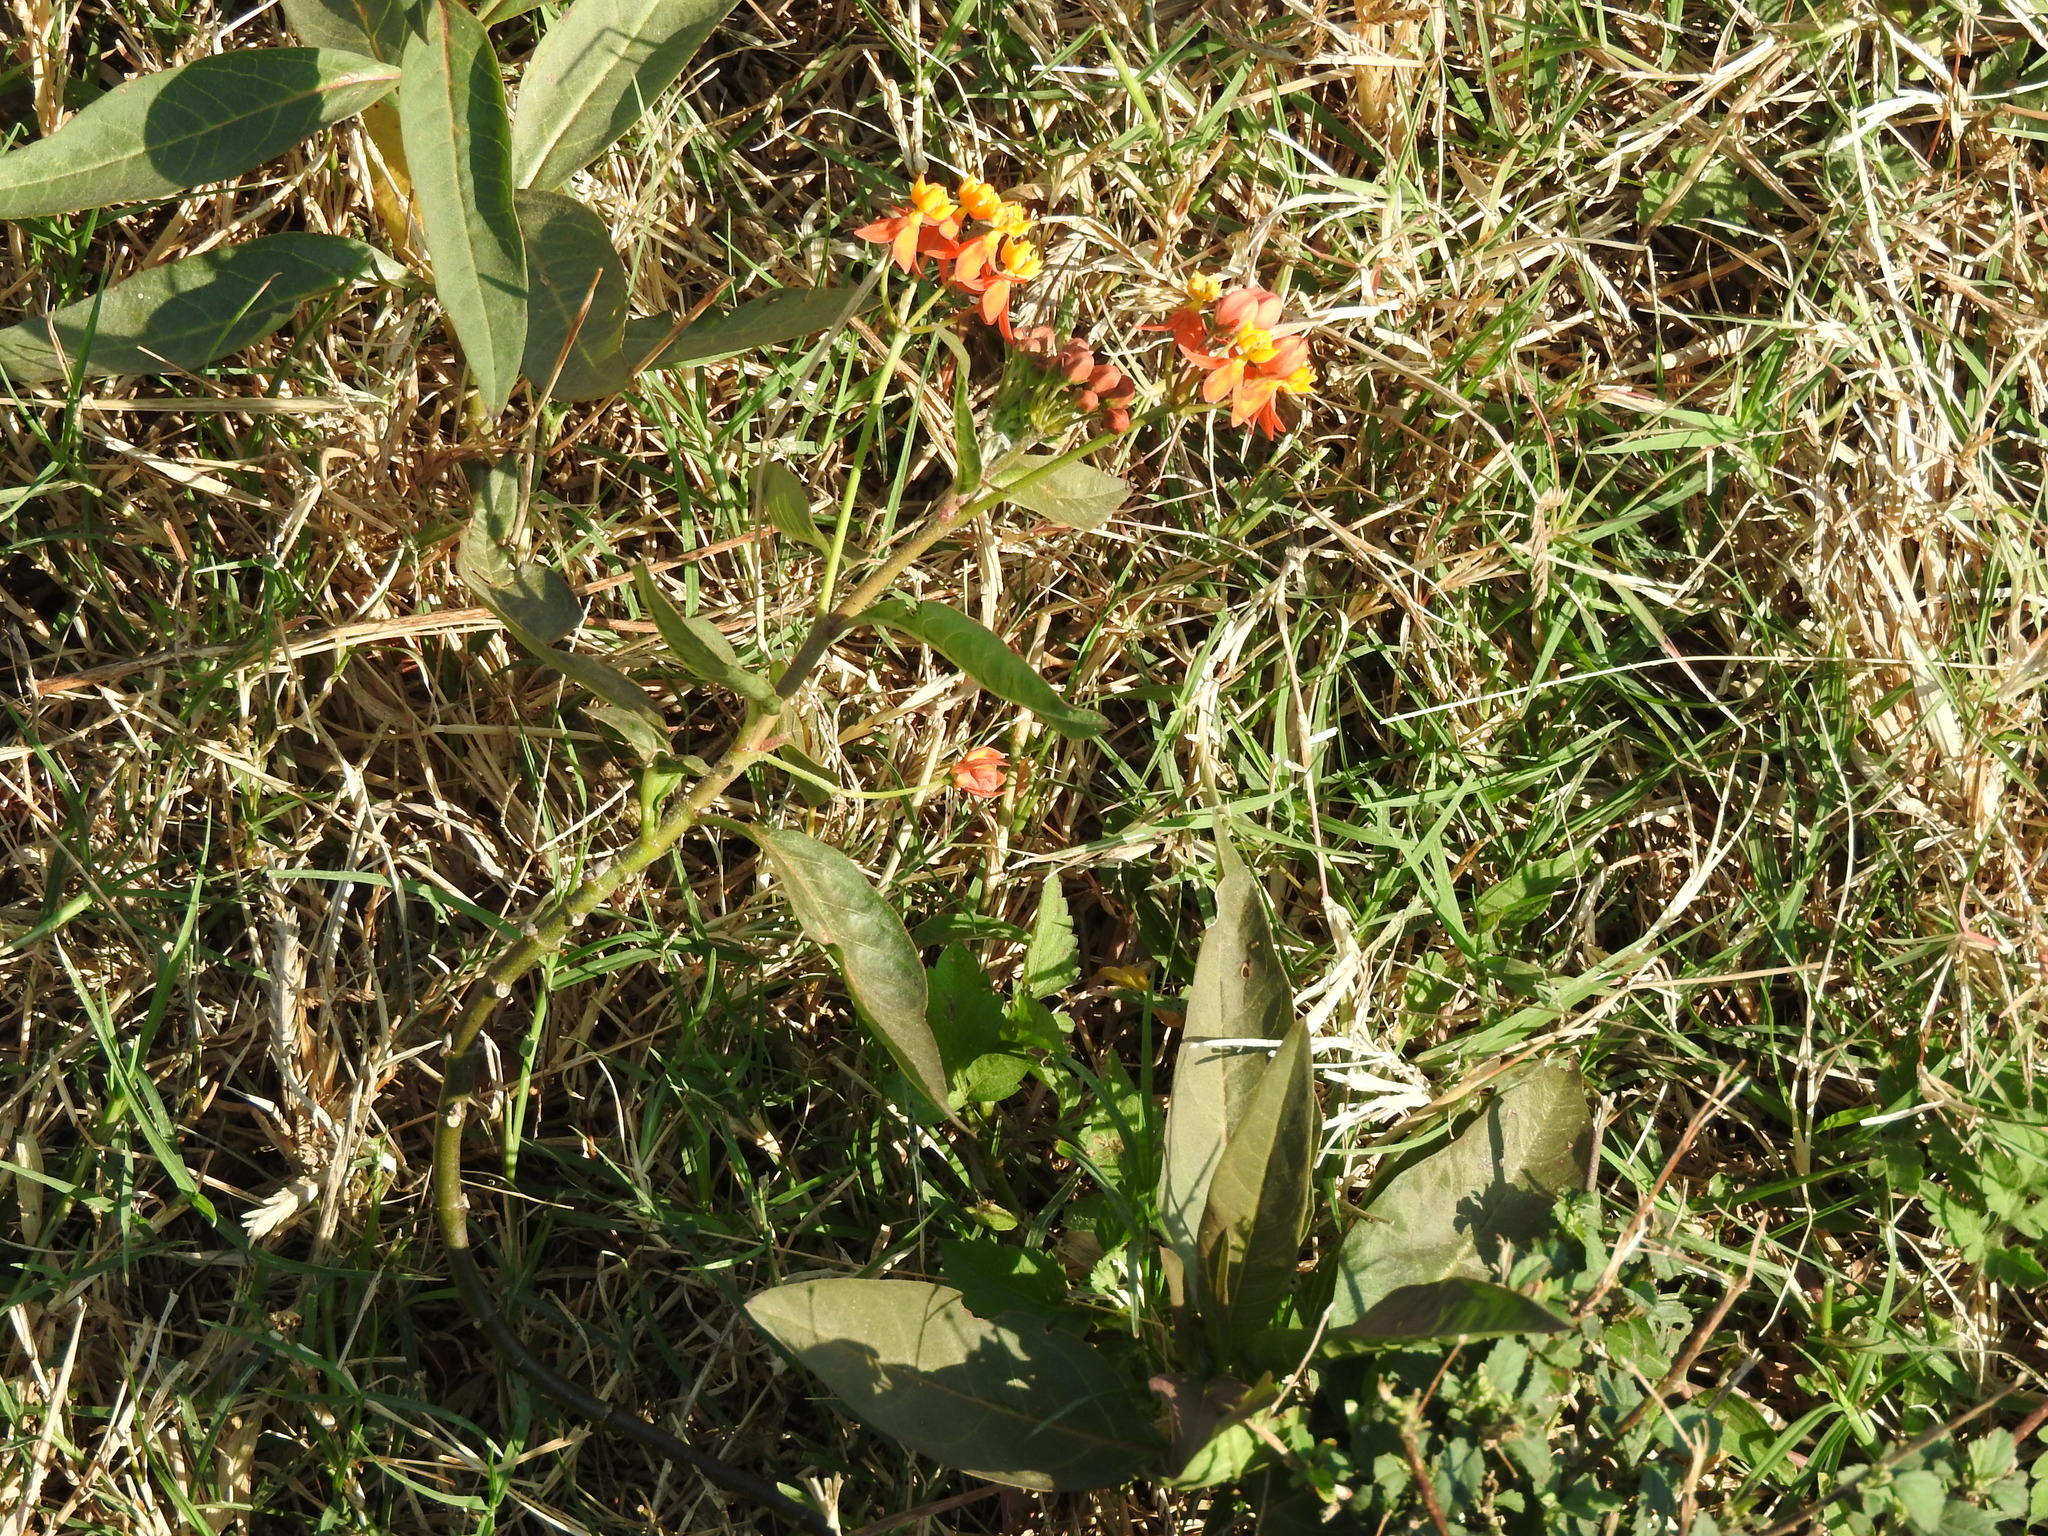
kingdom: Plantae
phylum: Tracheophyta
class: Magnoliopsida
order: Gentianales
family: Apocynaceae
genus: Asclepias
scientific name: Asclepias curassavica
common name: Bloodflower
